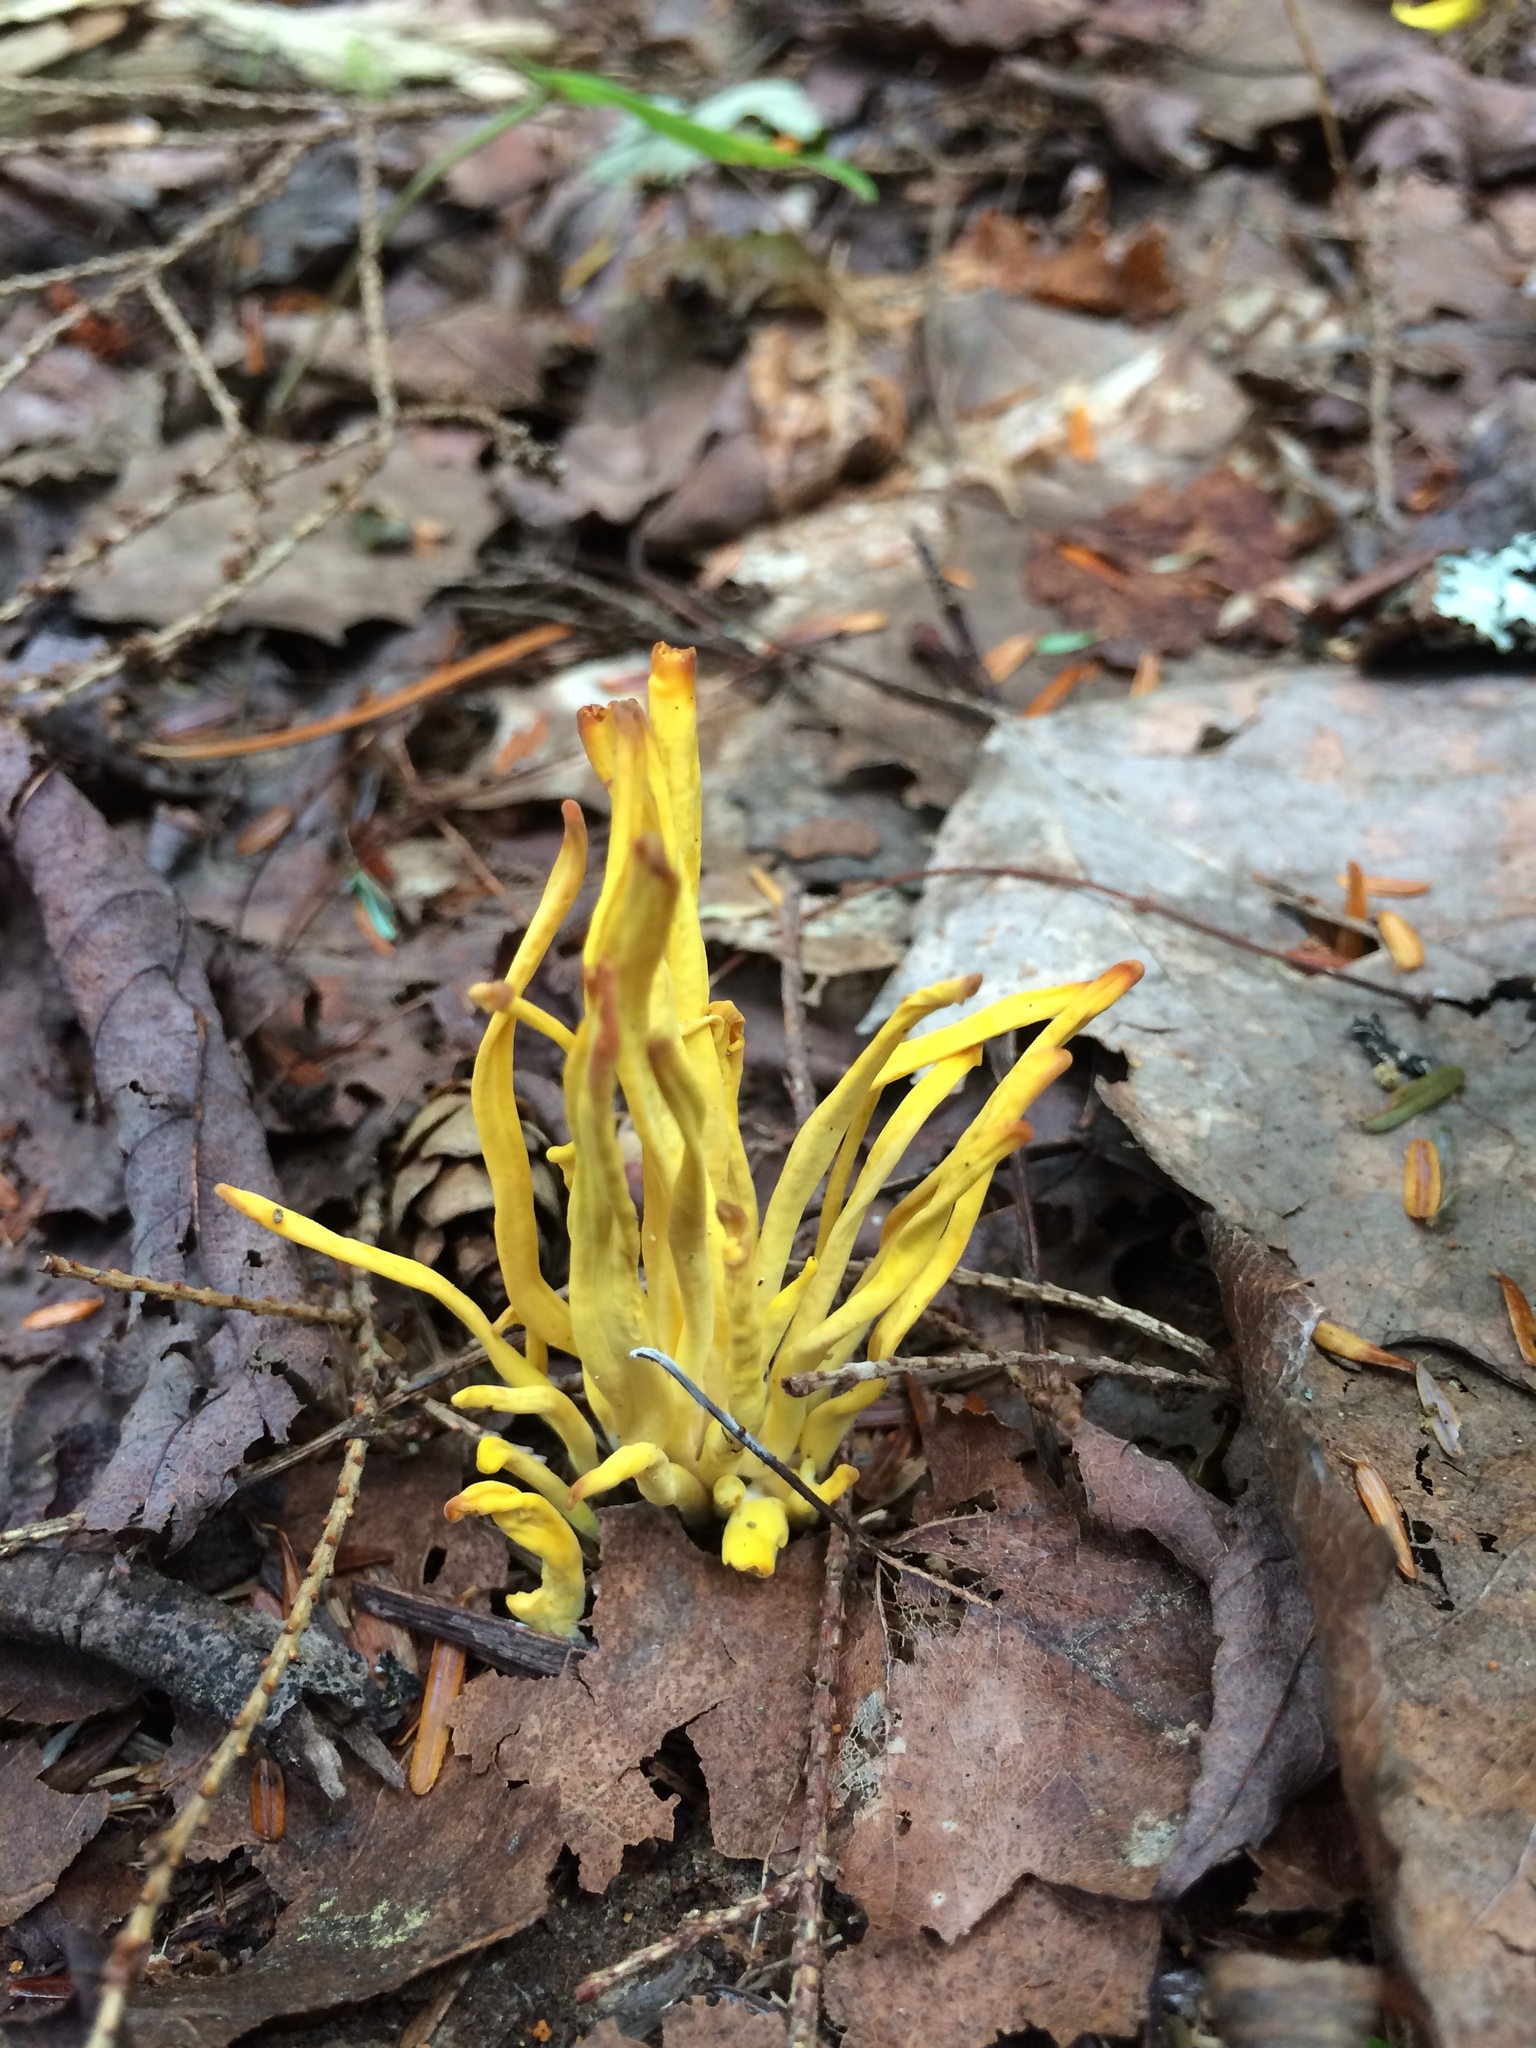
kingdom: Fungi
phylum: Basidiomycota
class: Agaricomycetes
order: Agaricales
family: Clavariaceae
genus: Clavulinopsis
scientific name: Clavulinopsis fusiformis
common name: Golden spindles
